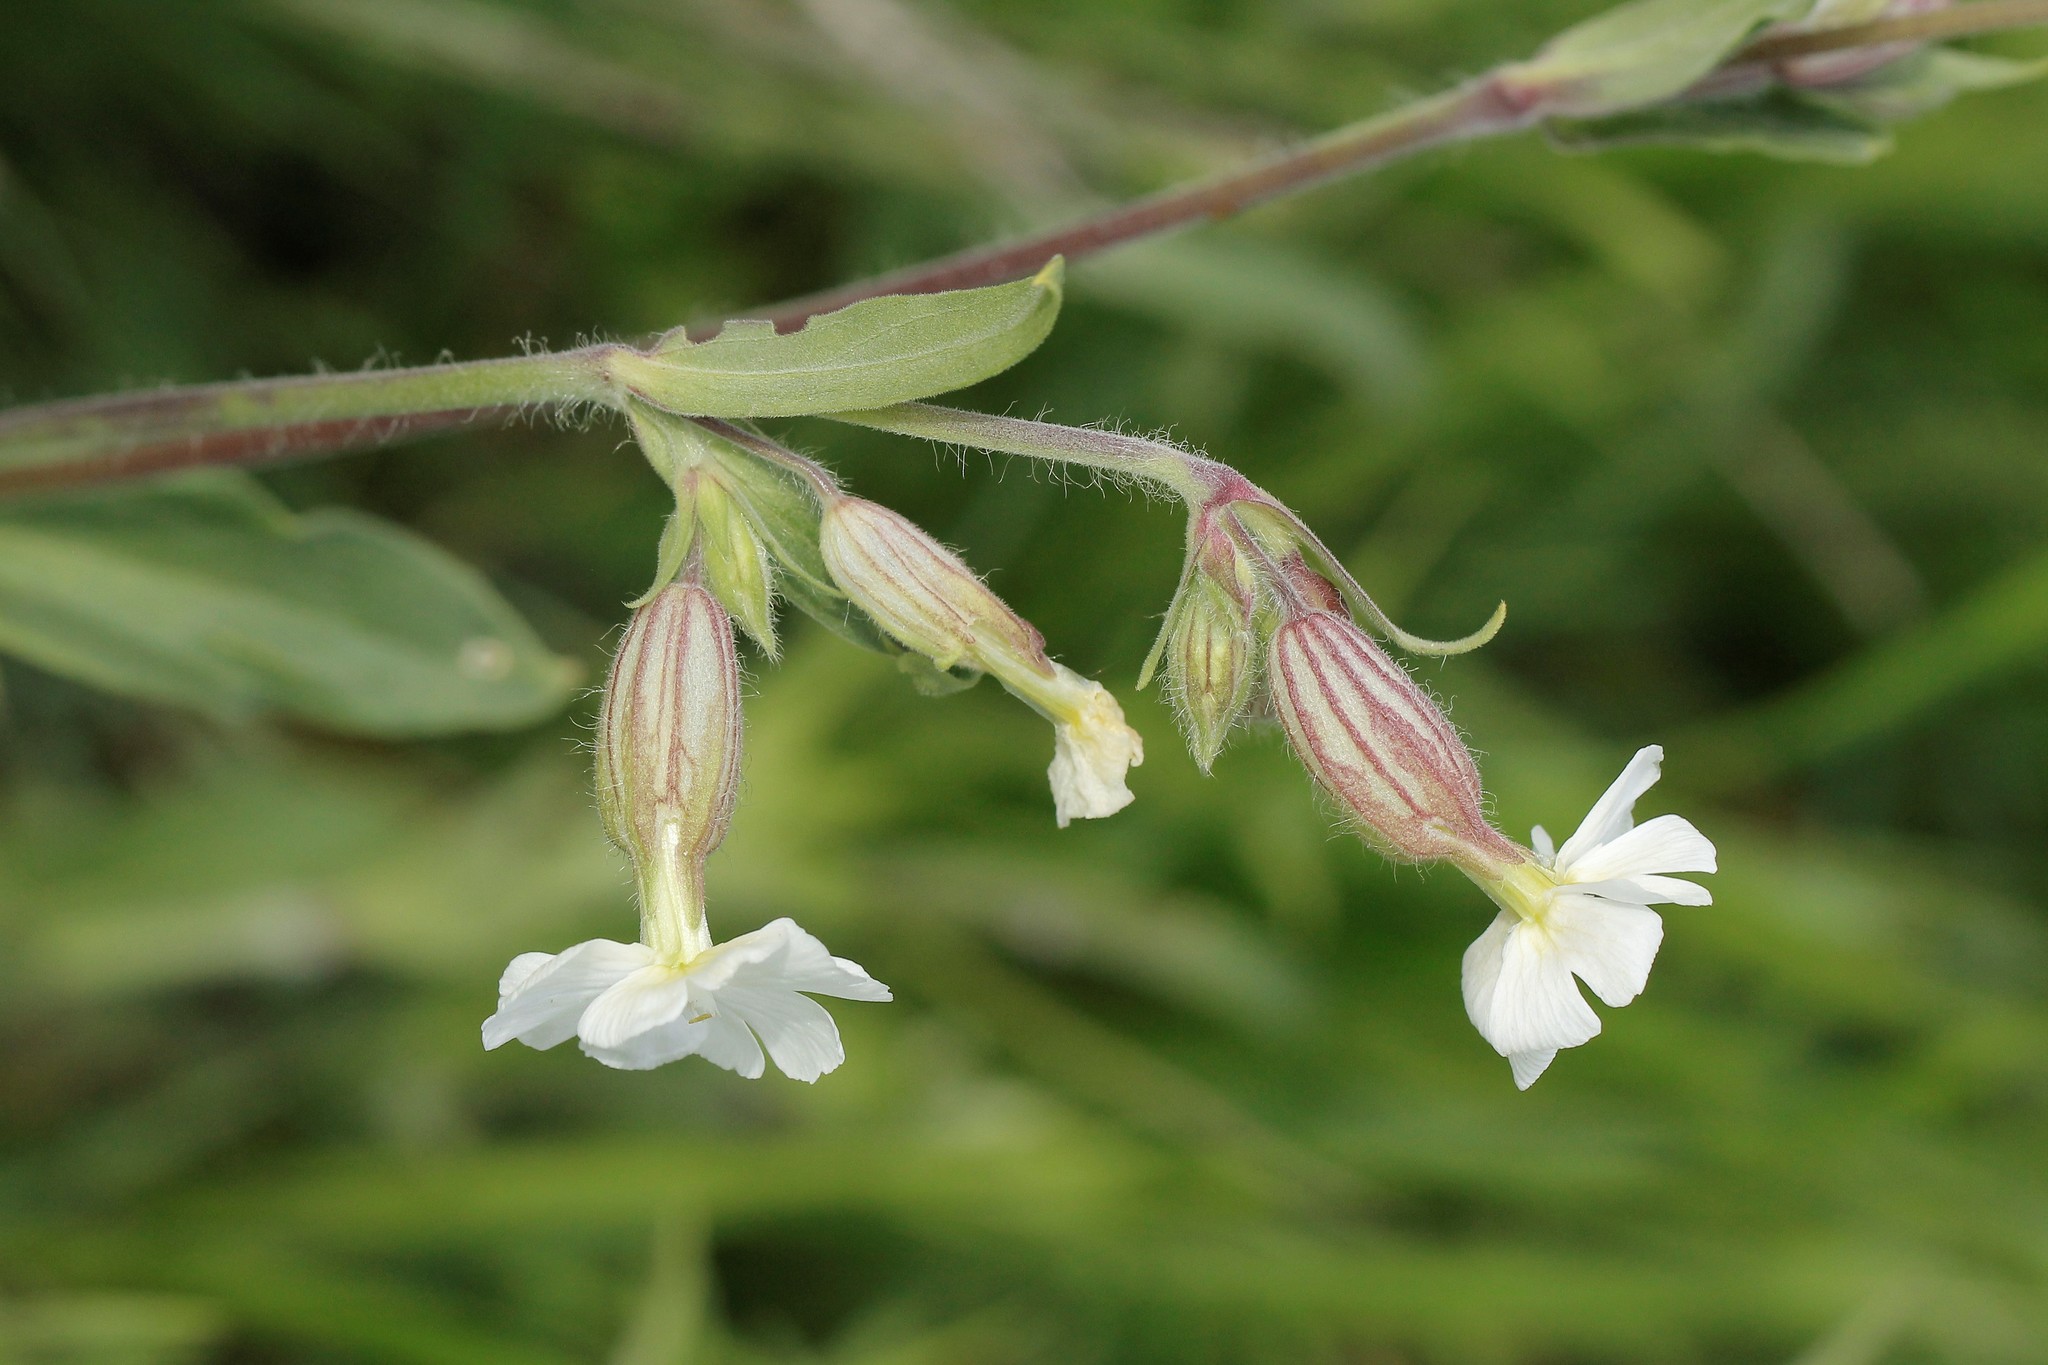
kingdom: Plantae
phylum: Tracheophyta
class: Magnoliopsida
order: Caryophyllales
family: Caryophyllaceae
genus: Silene
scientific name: Silene latifolia
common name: White campion
